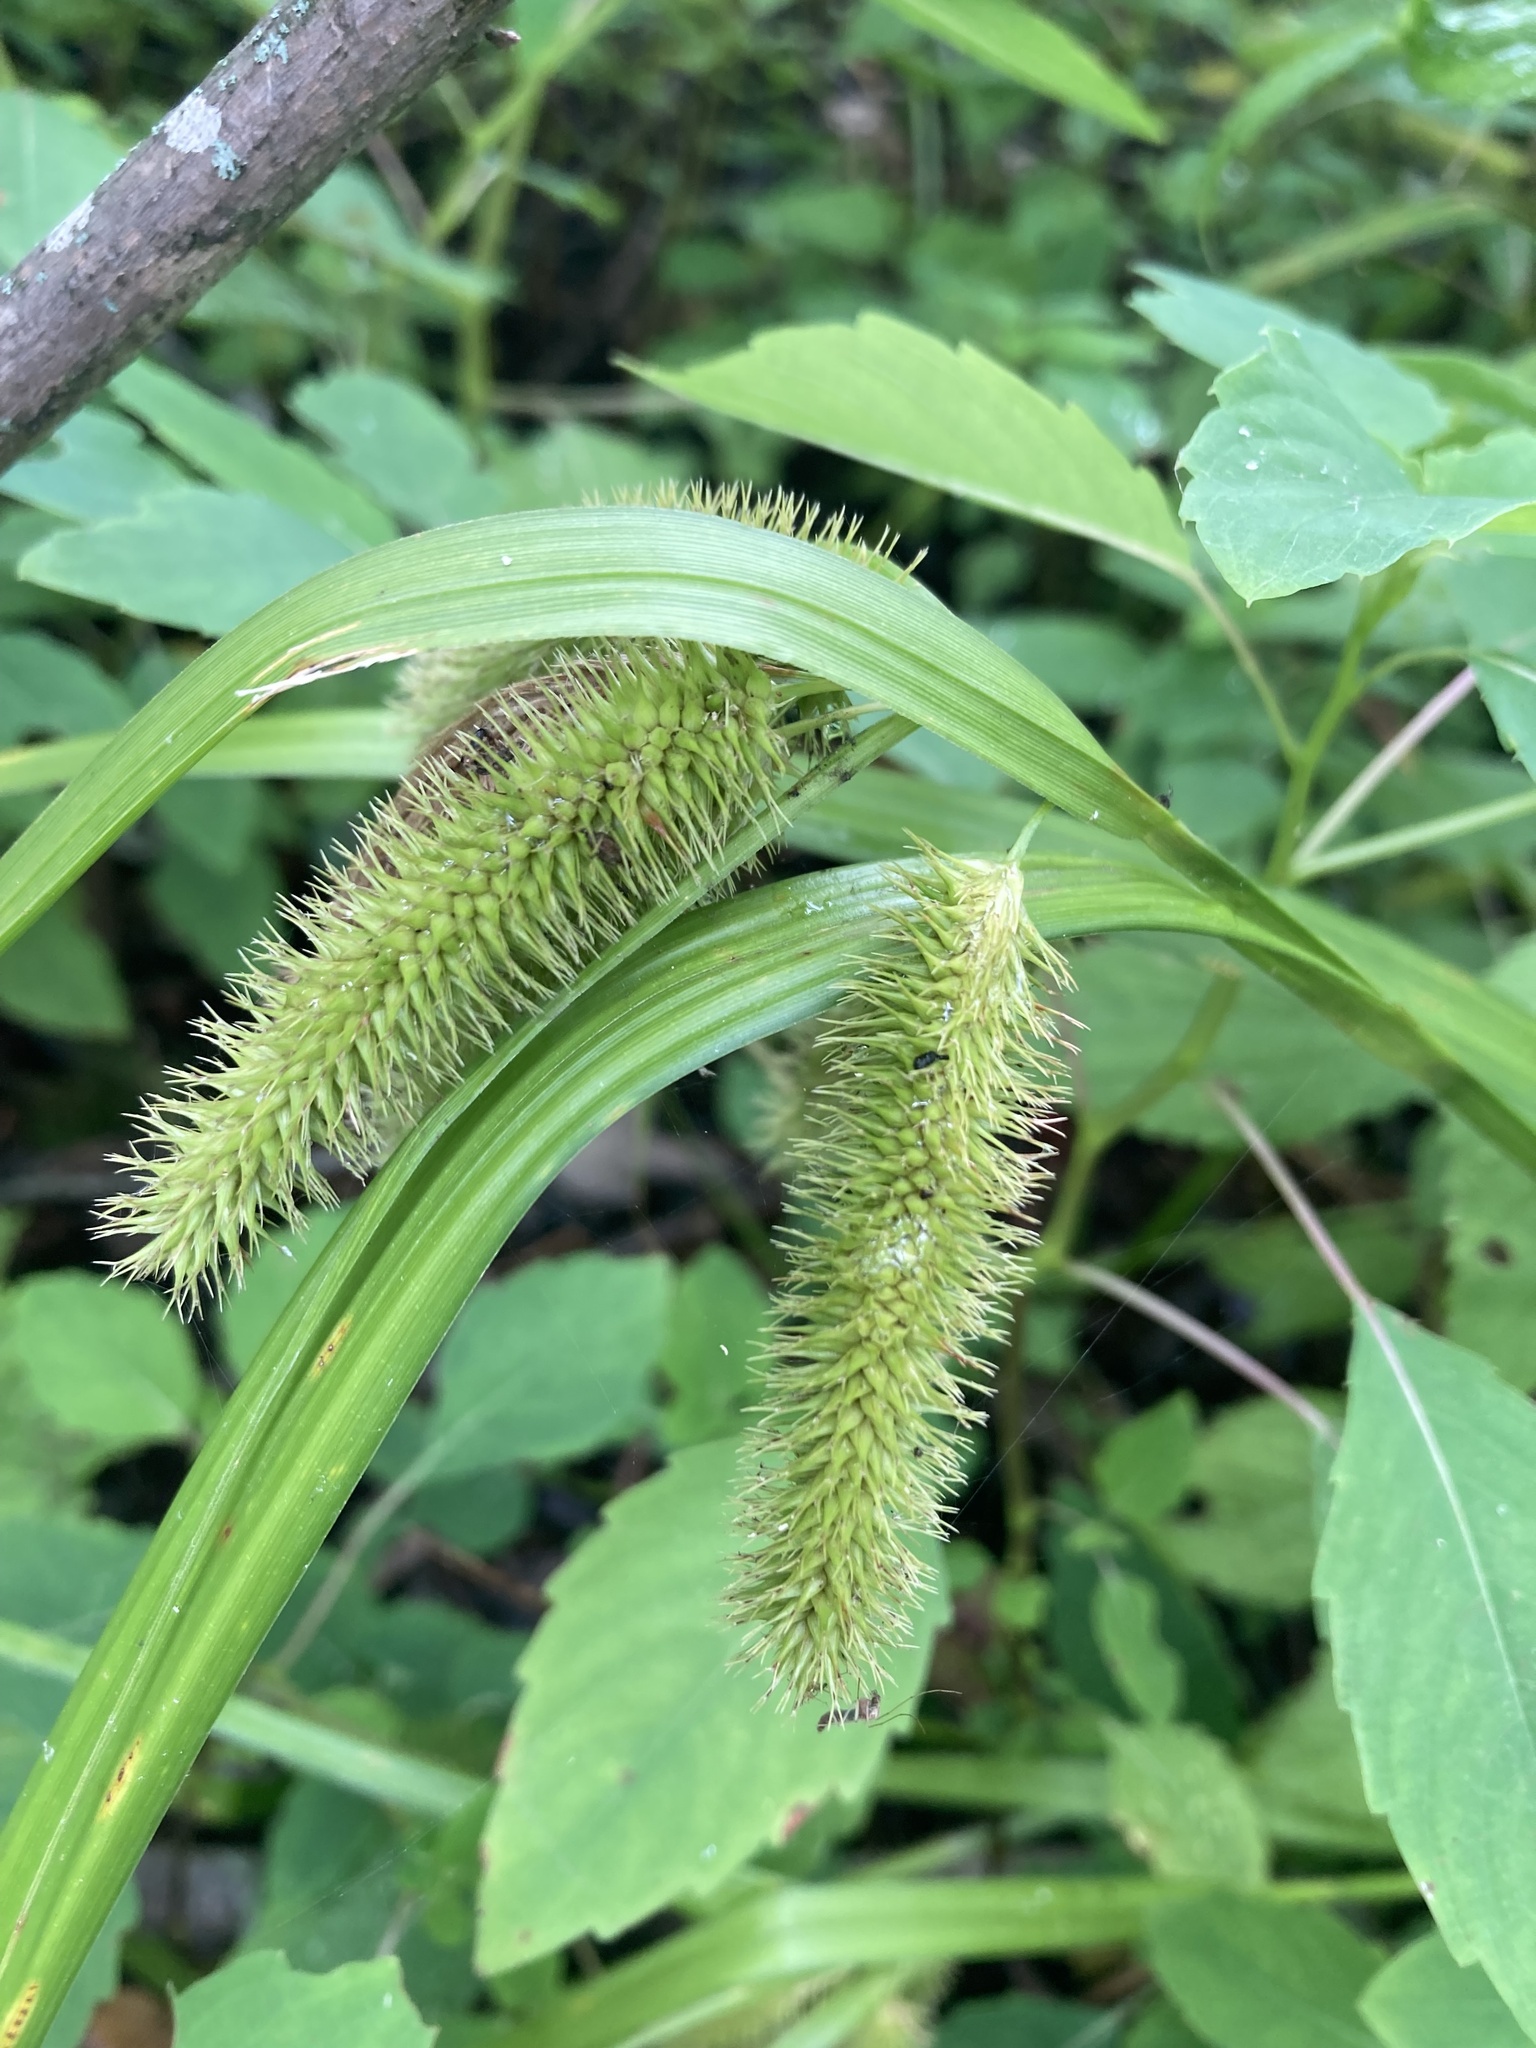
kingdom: Plantae
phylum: Tracheophyta
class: Liliopsida
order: Poales
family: Cyperaceae
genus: Carex
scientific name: Carex comosa
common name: Bristly sedge
